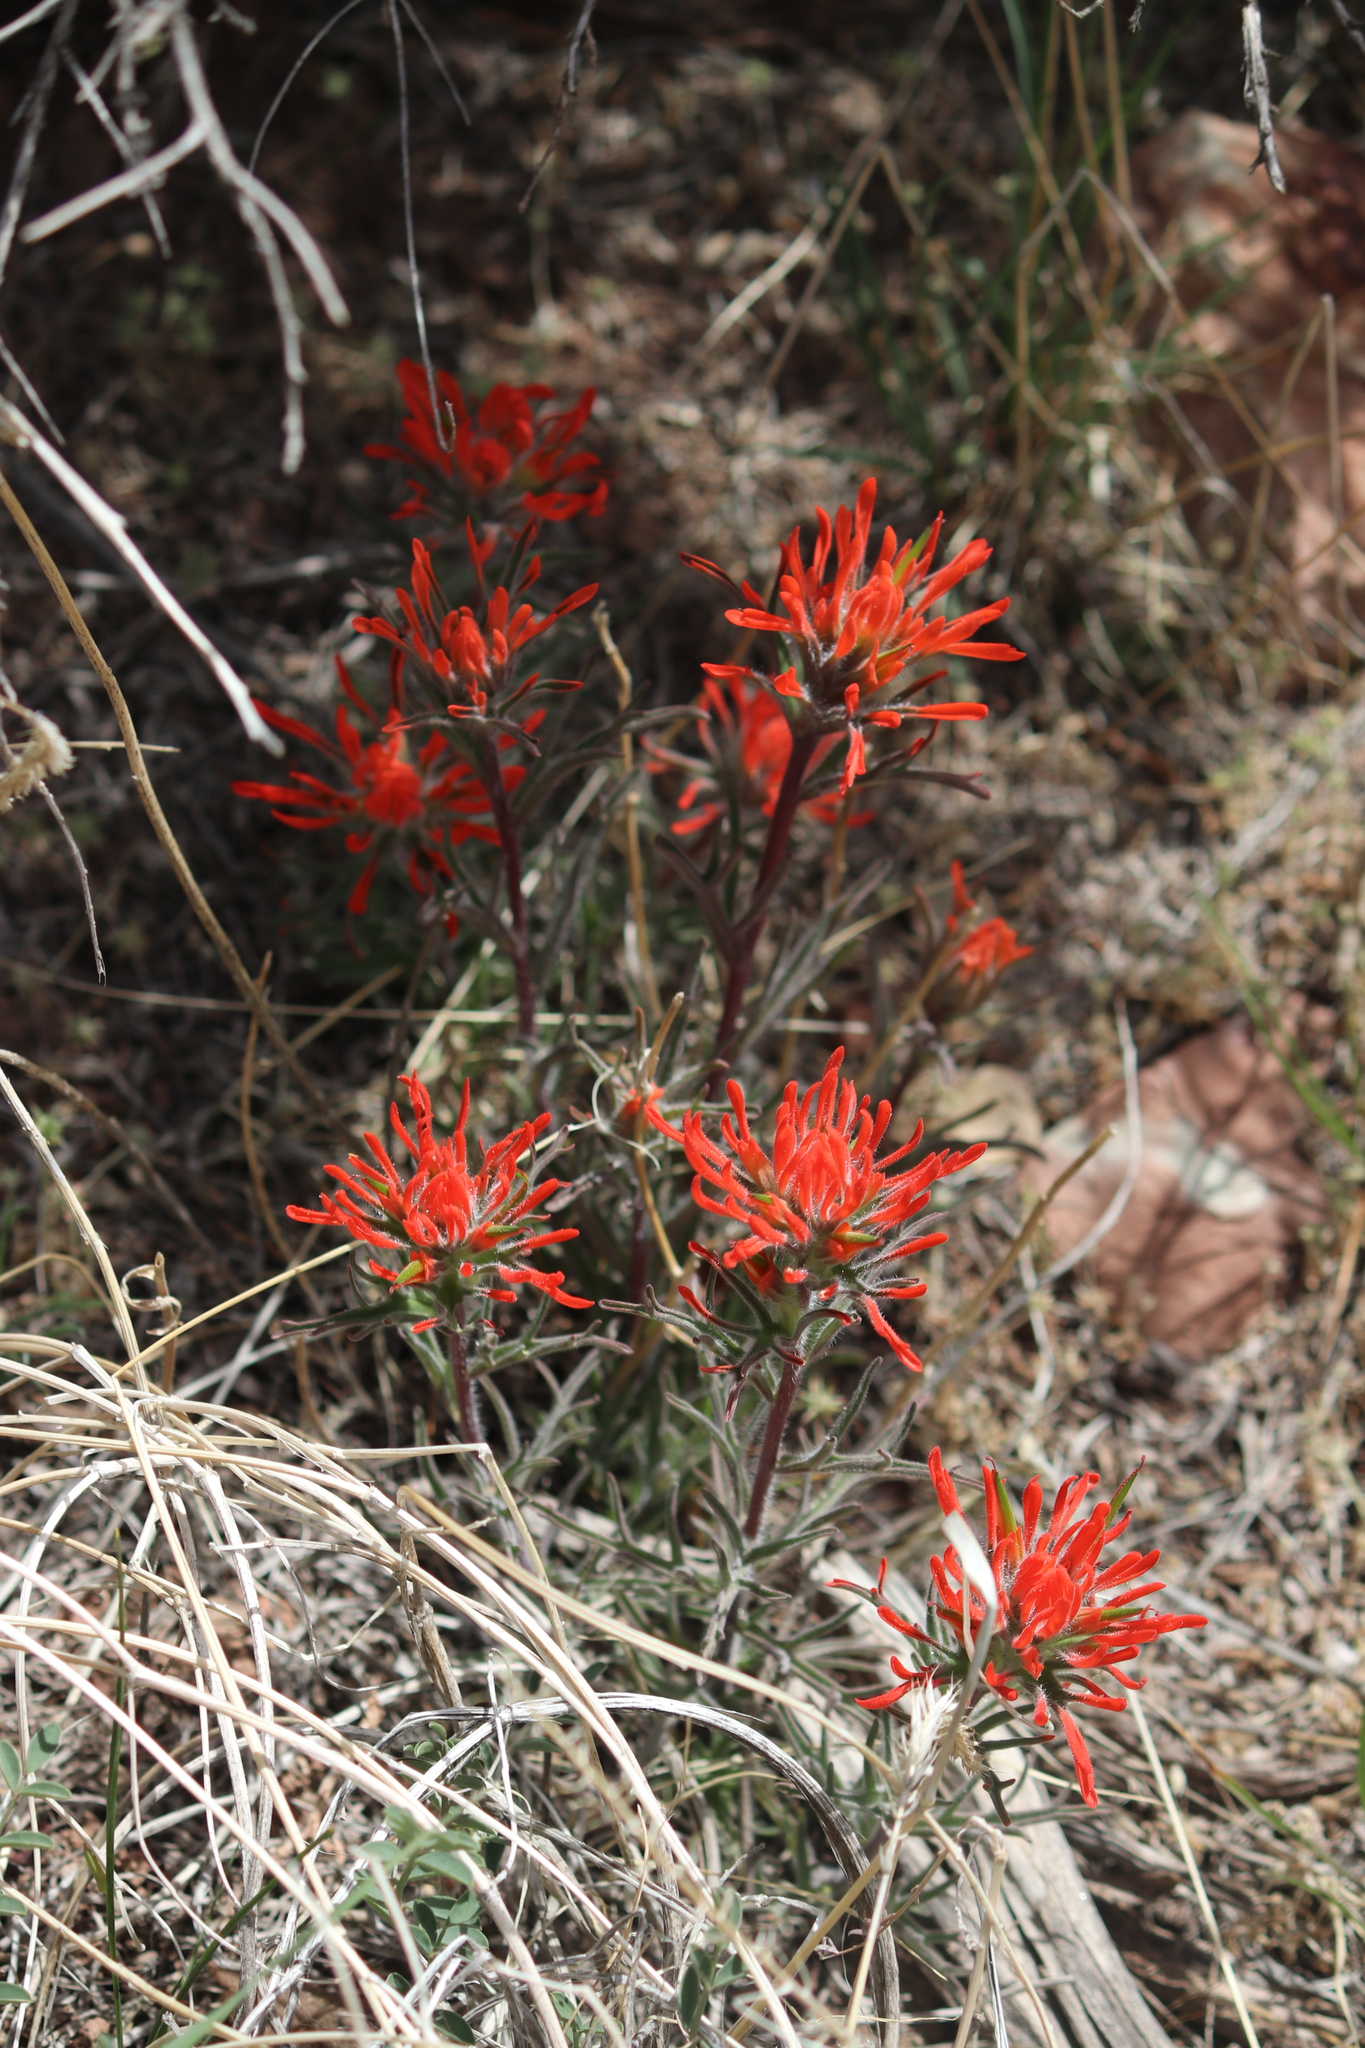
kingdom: Plantae
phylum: Tracheophyta
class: Magnoliopsida
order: Lamiales
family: Orobanchaceae
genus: Castilleja
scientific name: Castilleja chromosa
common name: Desert paintbrush
